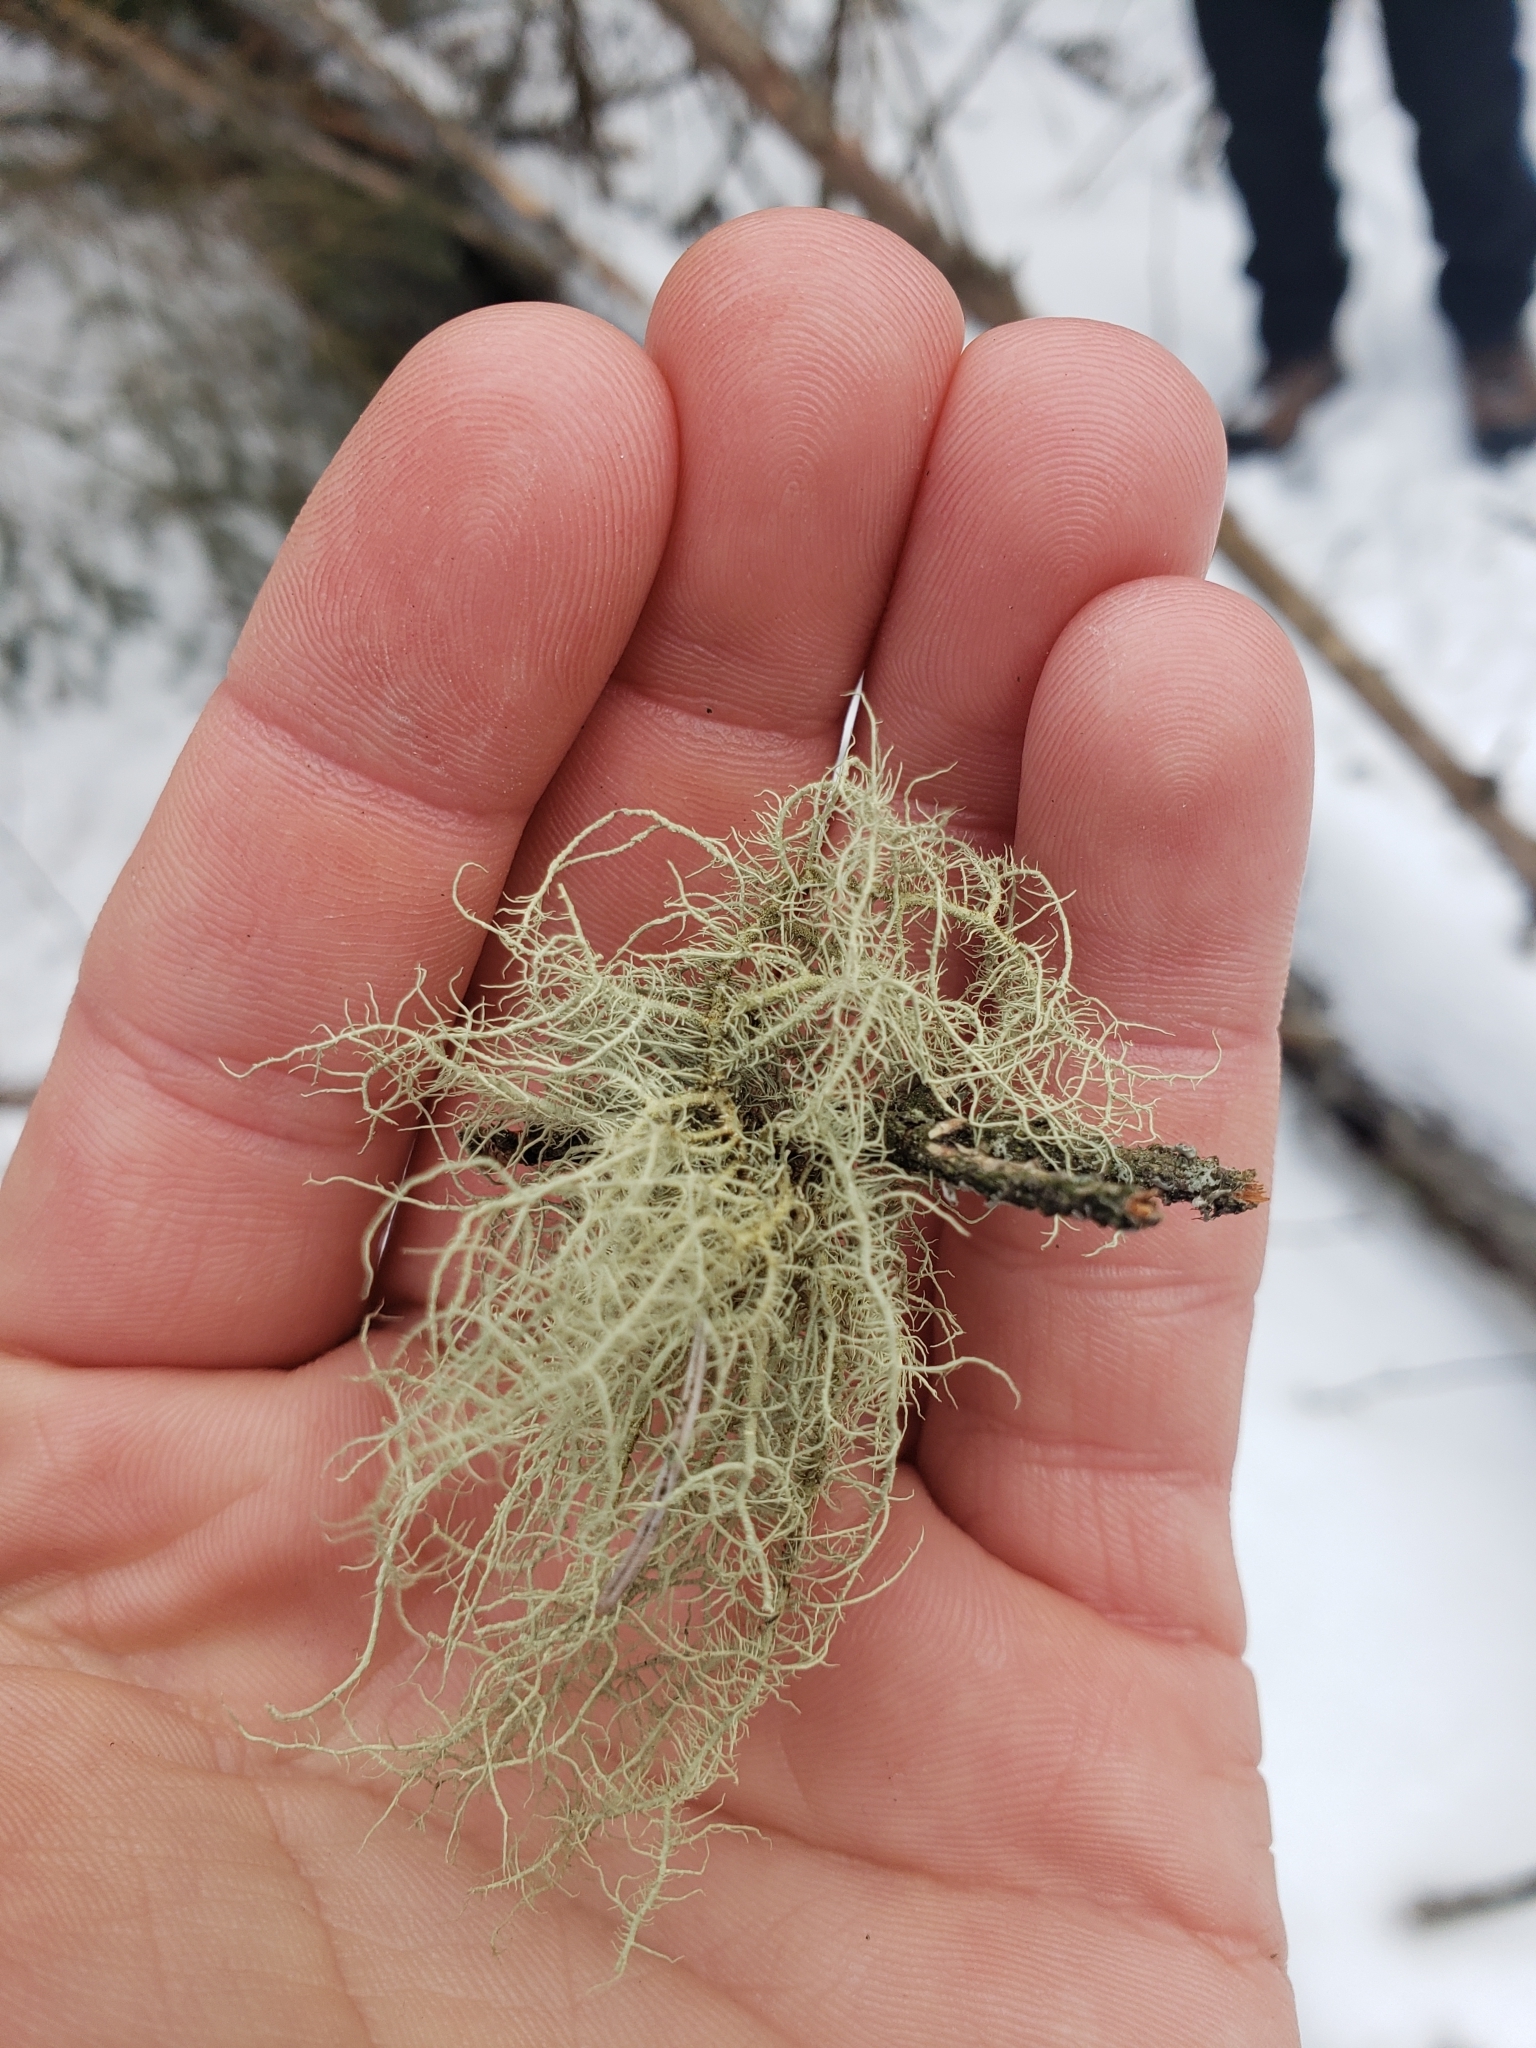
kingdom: Fungi
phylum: Ascomycota
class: Lecanoromycetes
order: Lecanorales
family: Parmeliaceae
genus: Usnea
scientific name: Usnea hirta
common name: Bristly beard lichen
